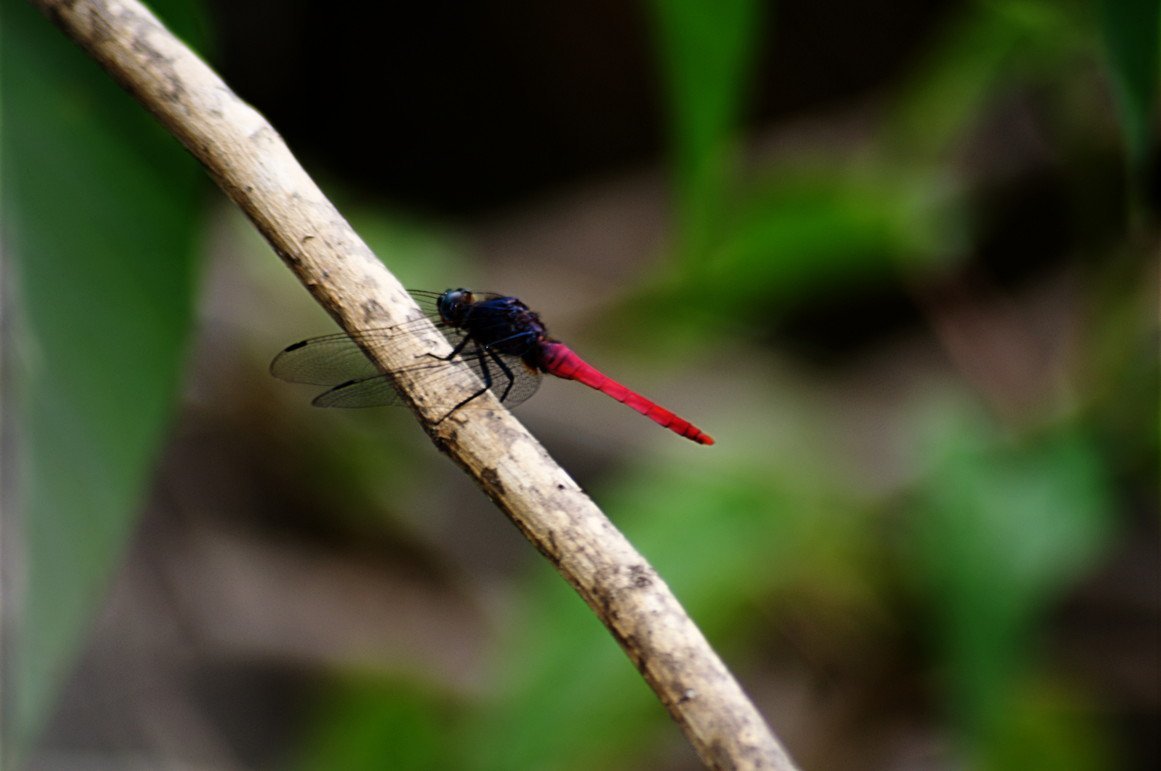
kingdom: Animalia
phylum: Arthropoda
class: Insecta
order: Odonata
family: Libellulidae
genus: Orthetrum
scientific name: Orthetrum pruinosum
